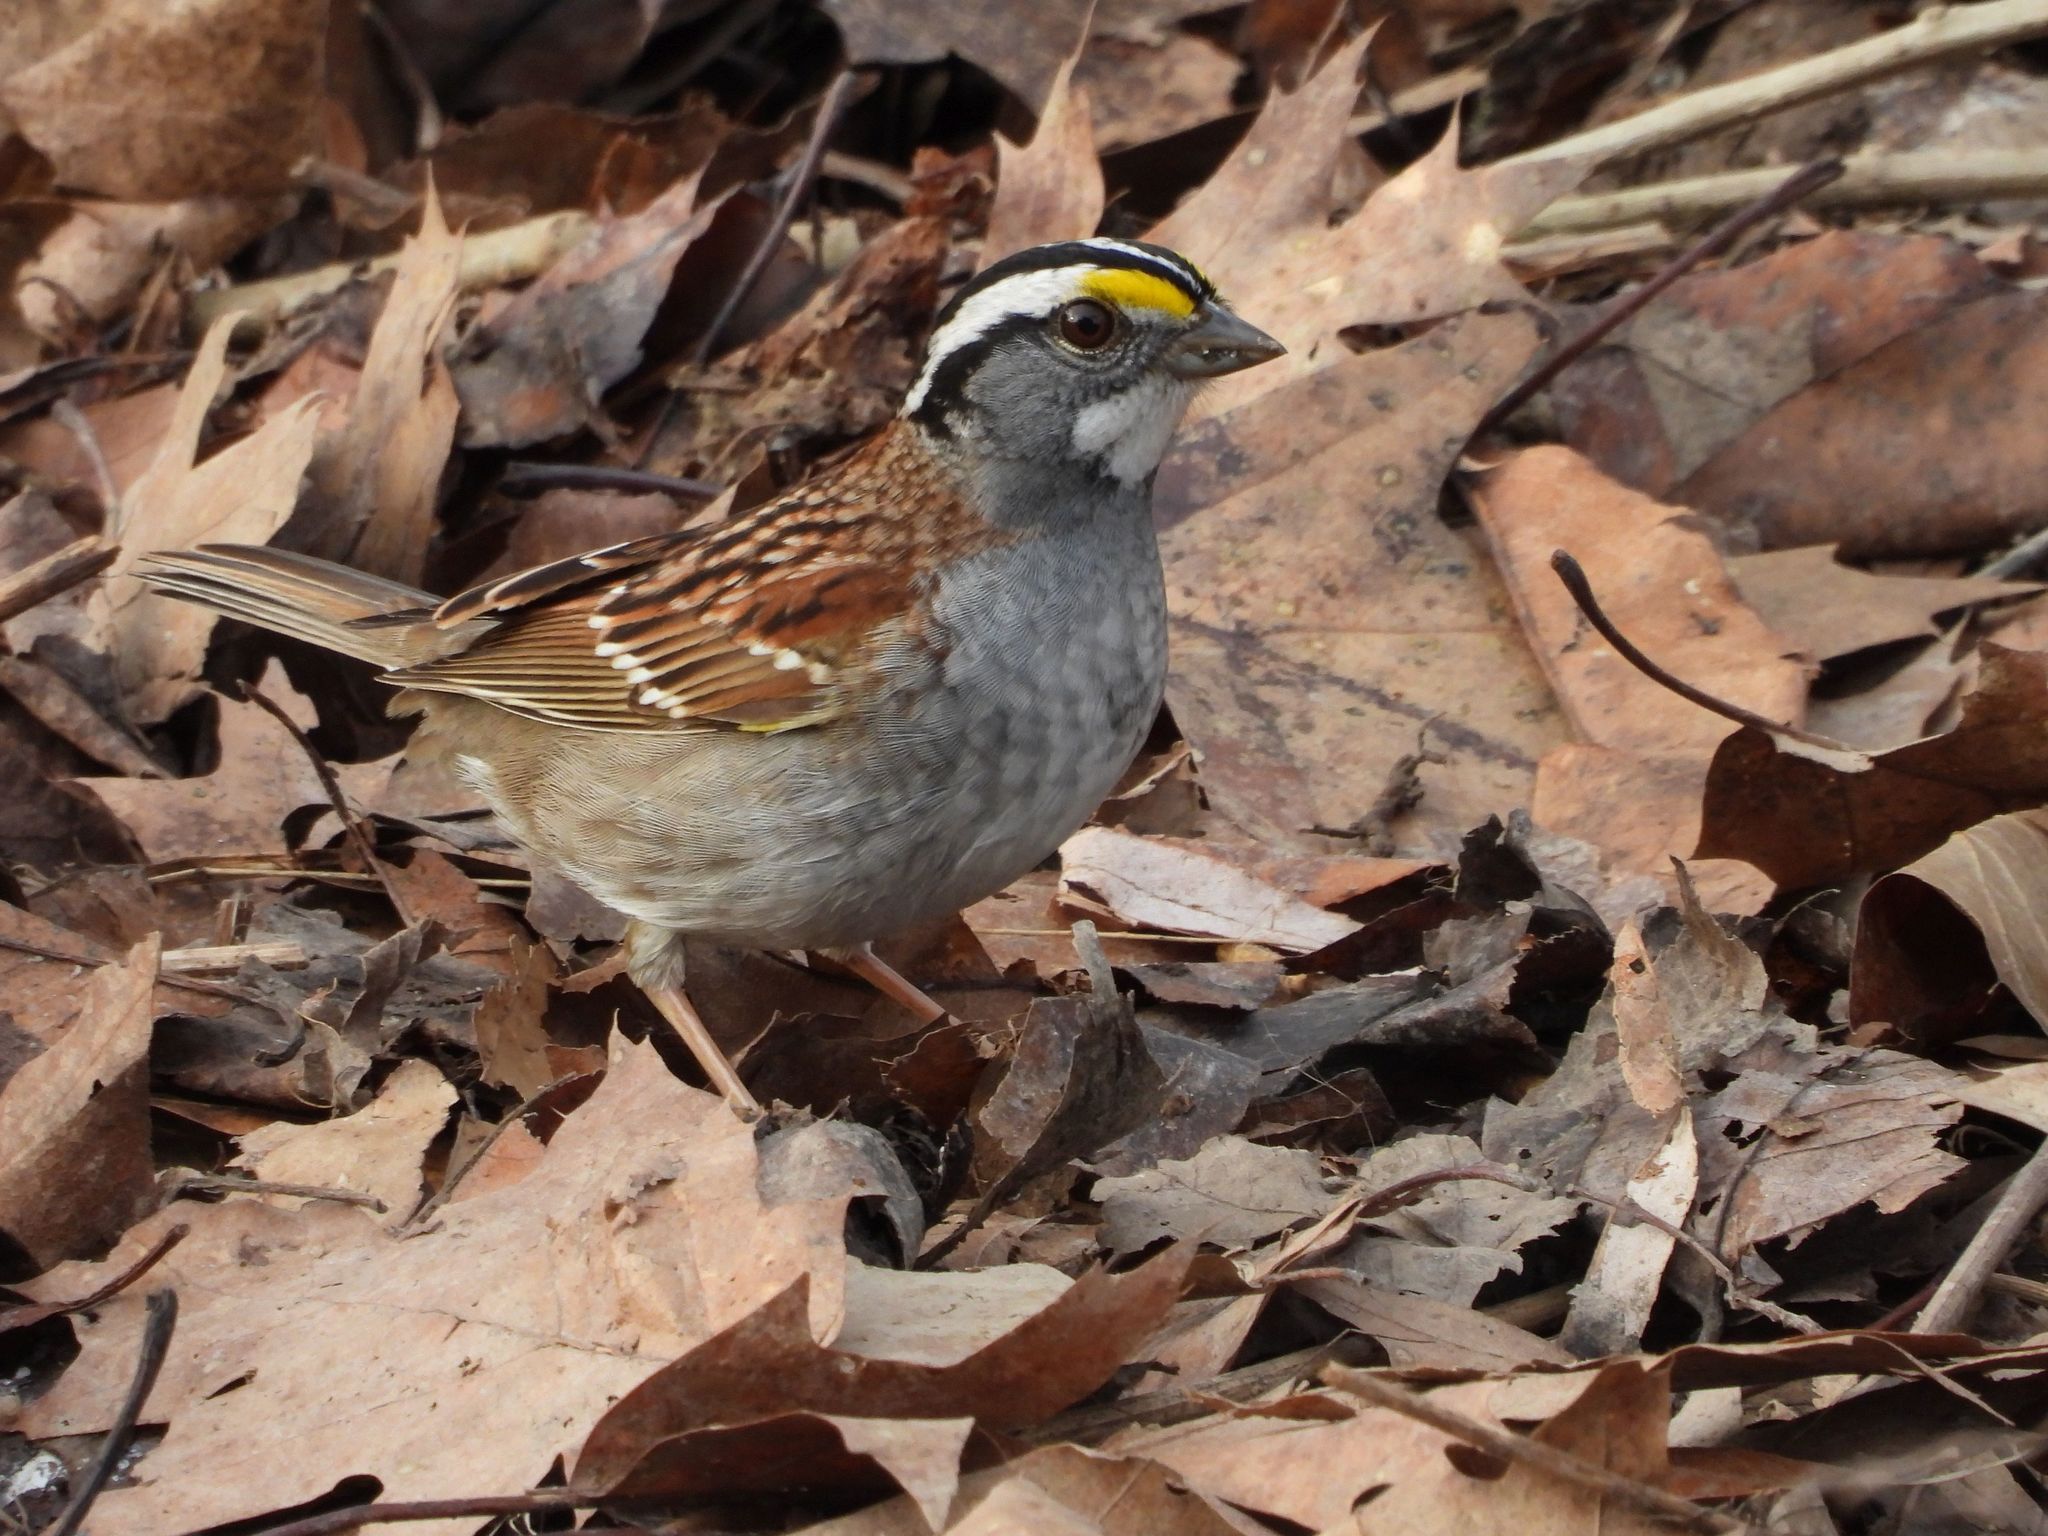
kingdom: Animalia
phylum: Chordata
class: Aves
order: Passeriformes
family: Passerellidae
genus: Zonotrichia
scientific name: Zonotrichia albicollis
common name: White-throated sparrow
